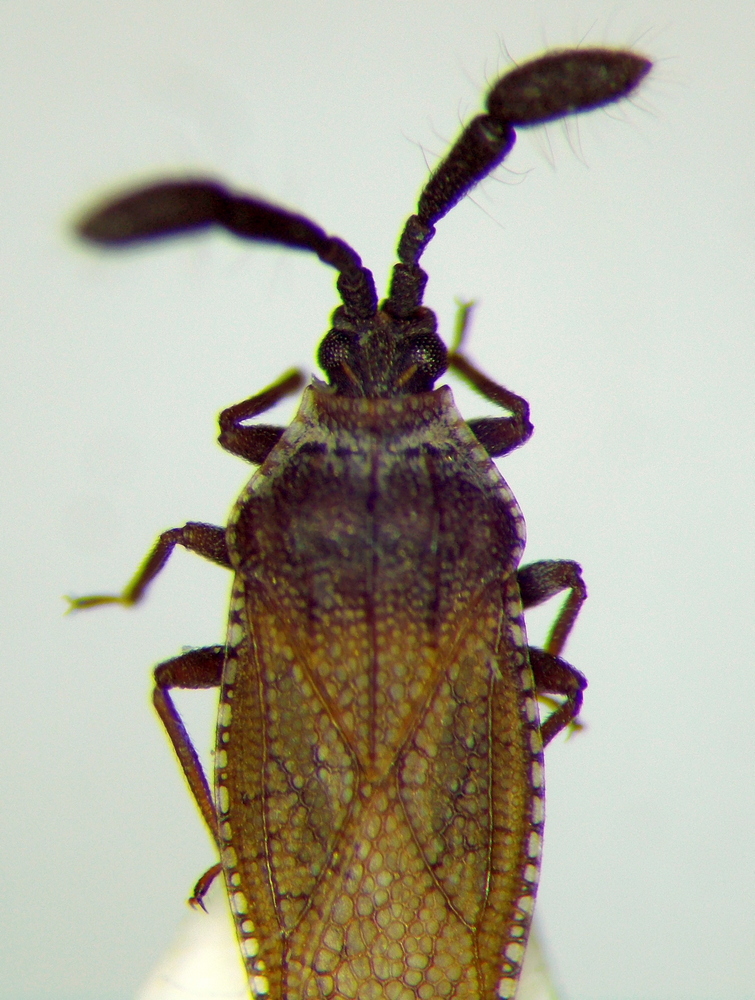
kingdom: Animalia
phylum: Arthropoda
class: Insecta
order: Hemiptera
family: Tingidae
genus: Copium
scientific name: Copium teucrii
